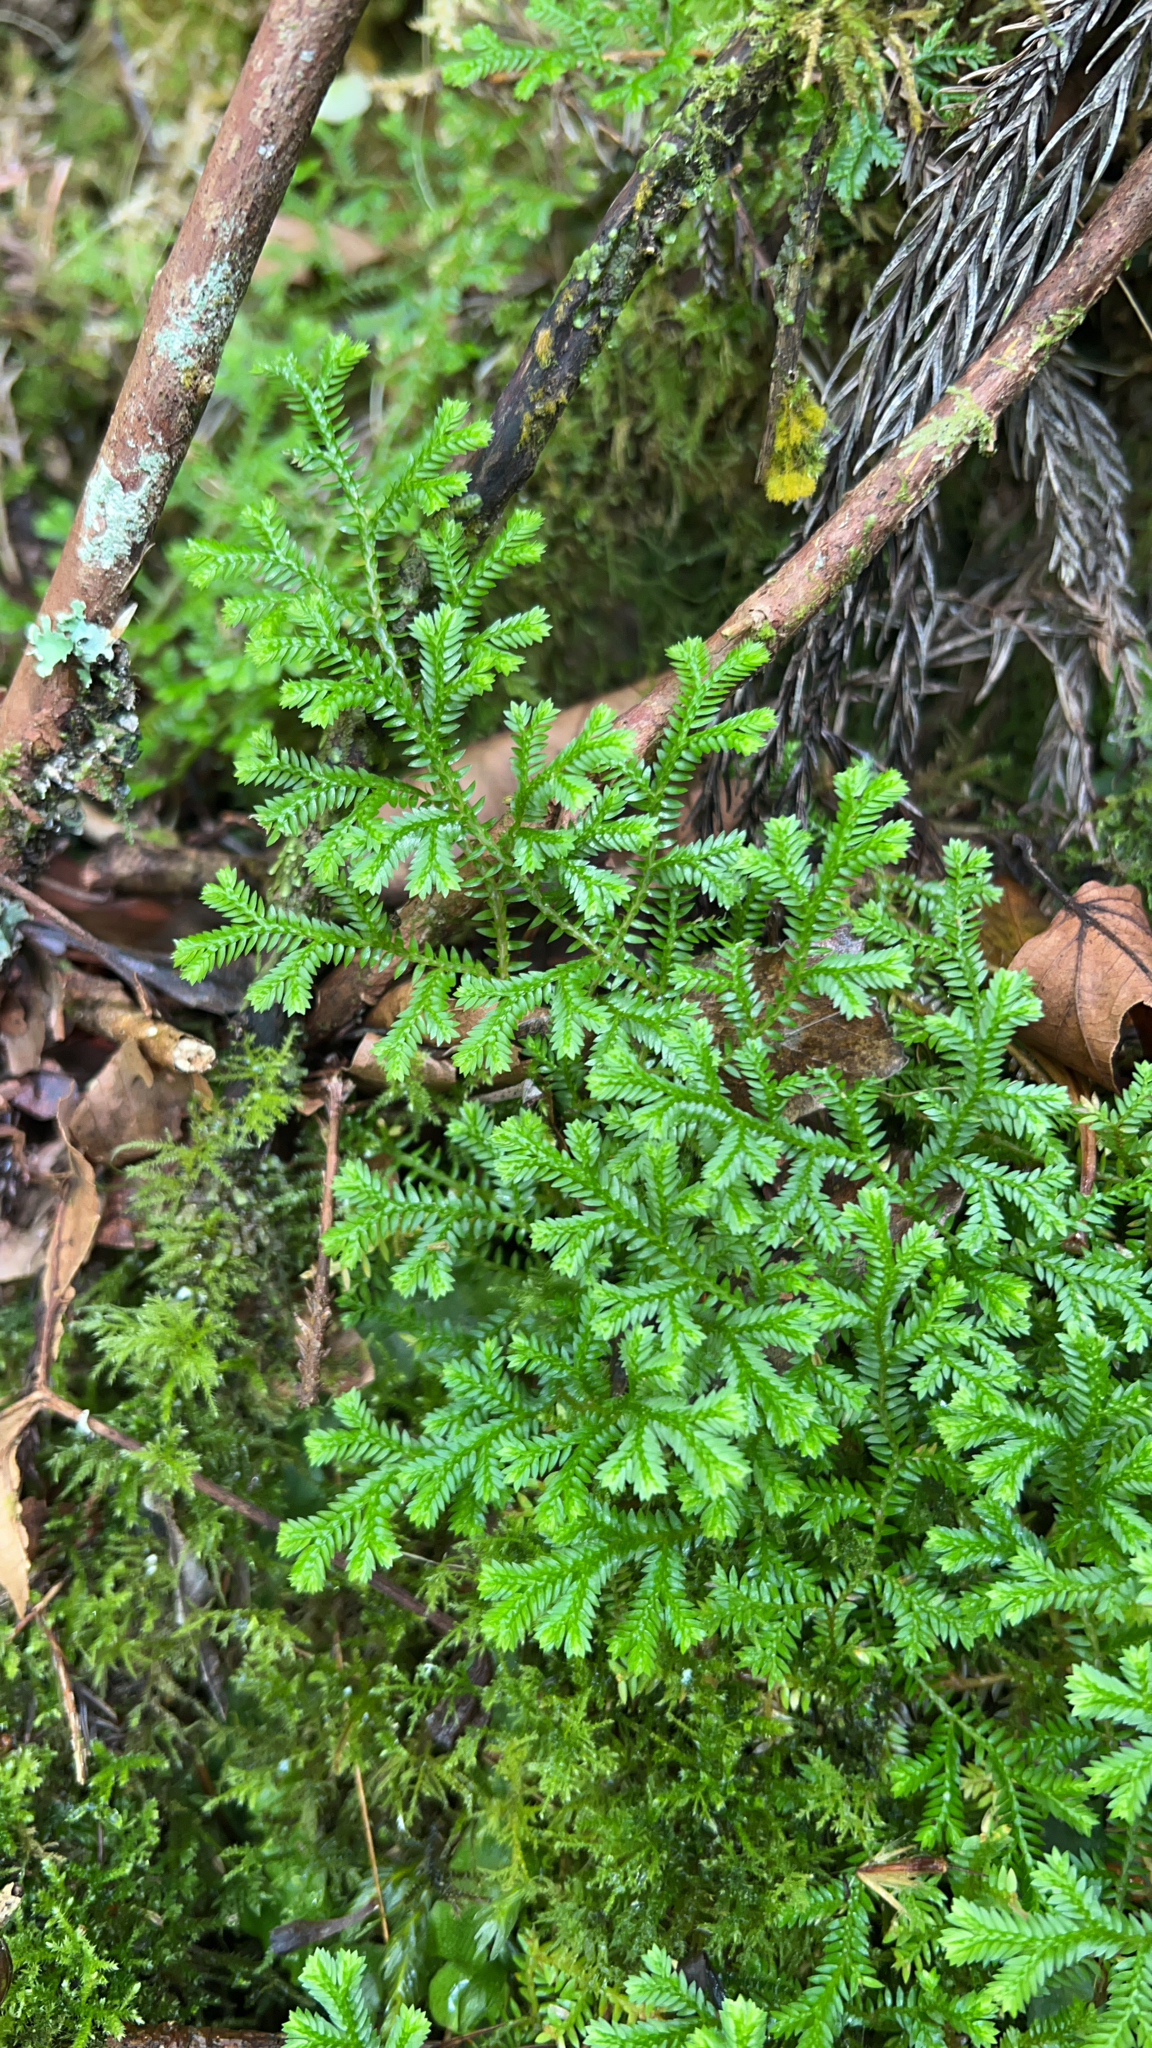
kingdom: Plantae
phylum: Tracheophyta
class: Lycopodiopsida
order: Selaginellales
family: Selaginellaceae
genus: Selaginella
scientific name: Selaginella kraussiana
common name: Krauss' spikemoss
